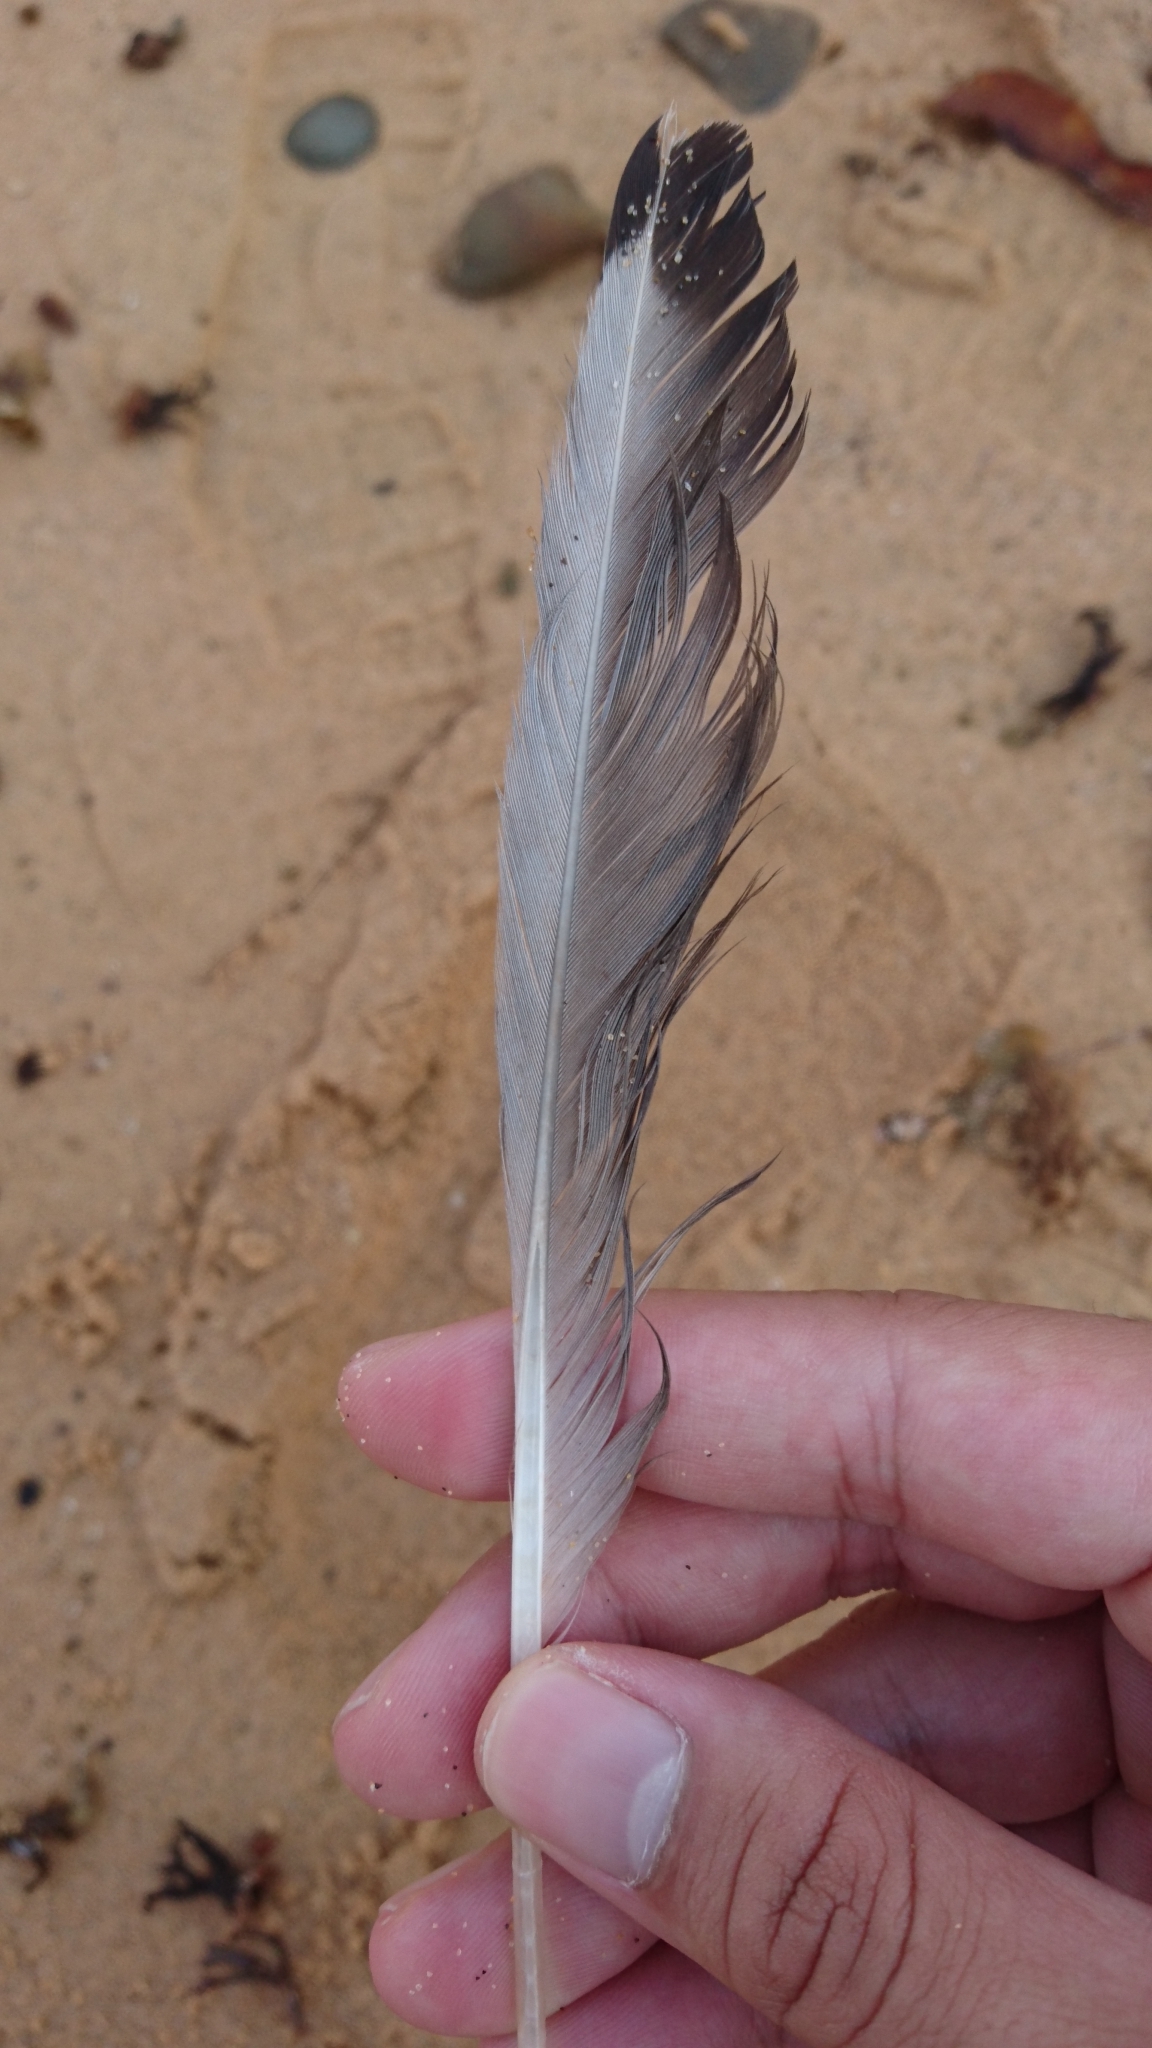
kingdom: Animalia
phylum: Chordata
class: Aves
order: Charadriiformes
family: Laridae
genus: Chroicocephalus
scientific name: Chroicocephalus novaehollandiae
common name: Silver gull
